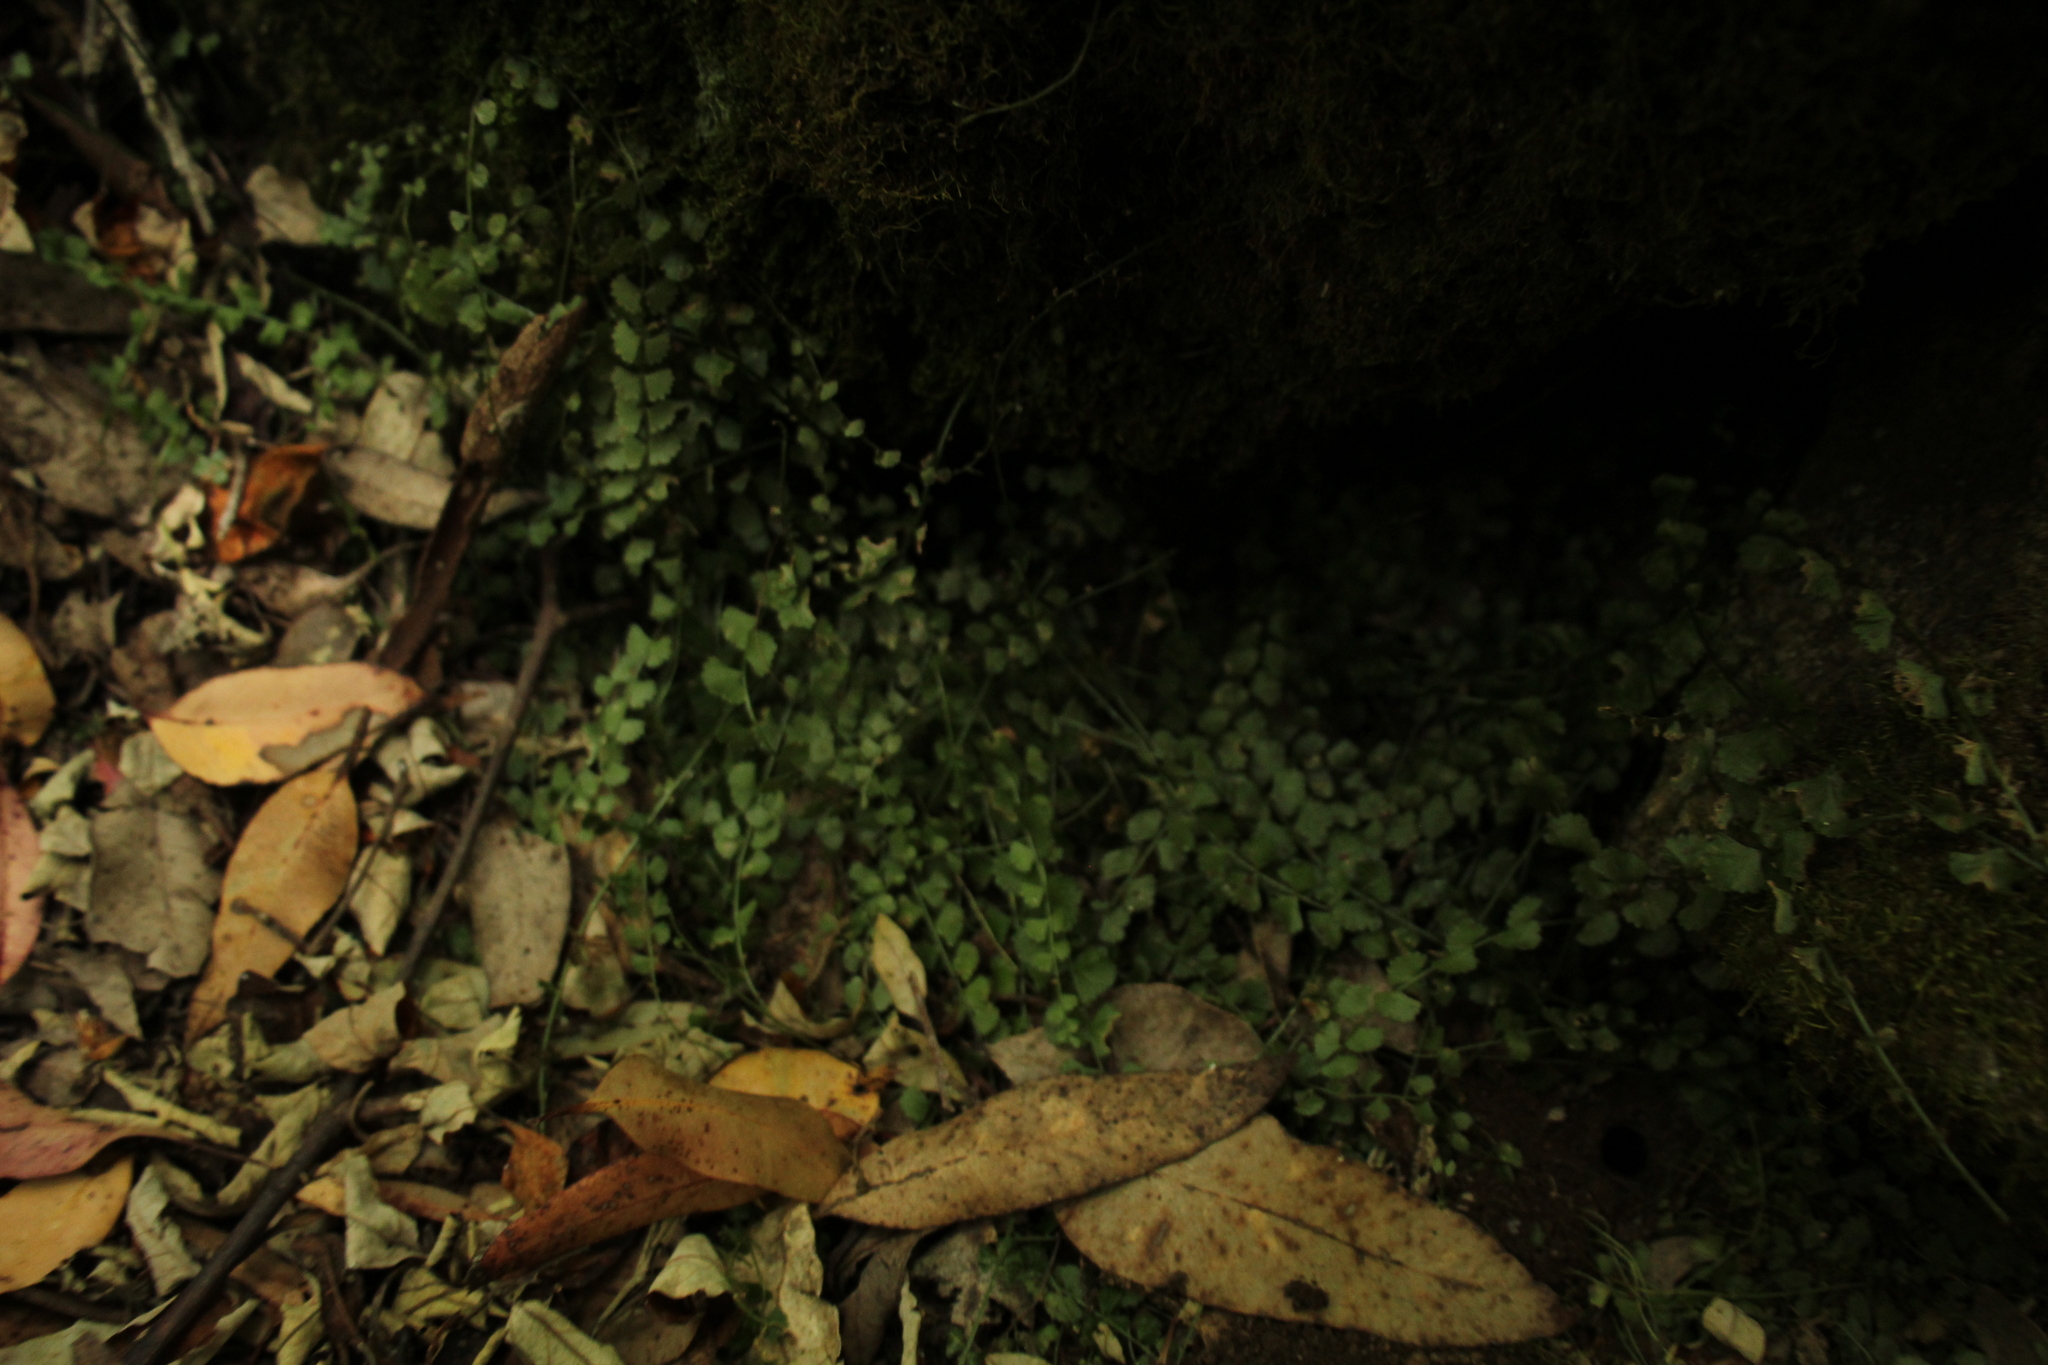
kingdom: Plantae
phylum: Tracheophyta
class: Polypodiopsida
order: Polypodiales
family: Aspleniaceae
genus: Asplenium
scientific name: Asplenium flabellifolium
